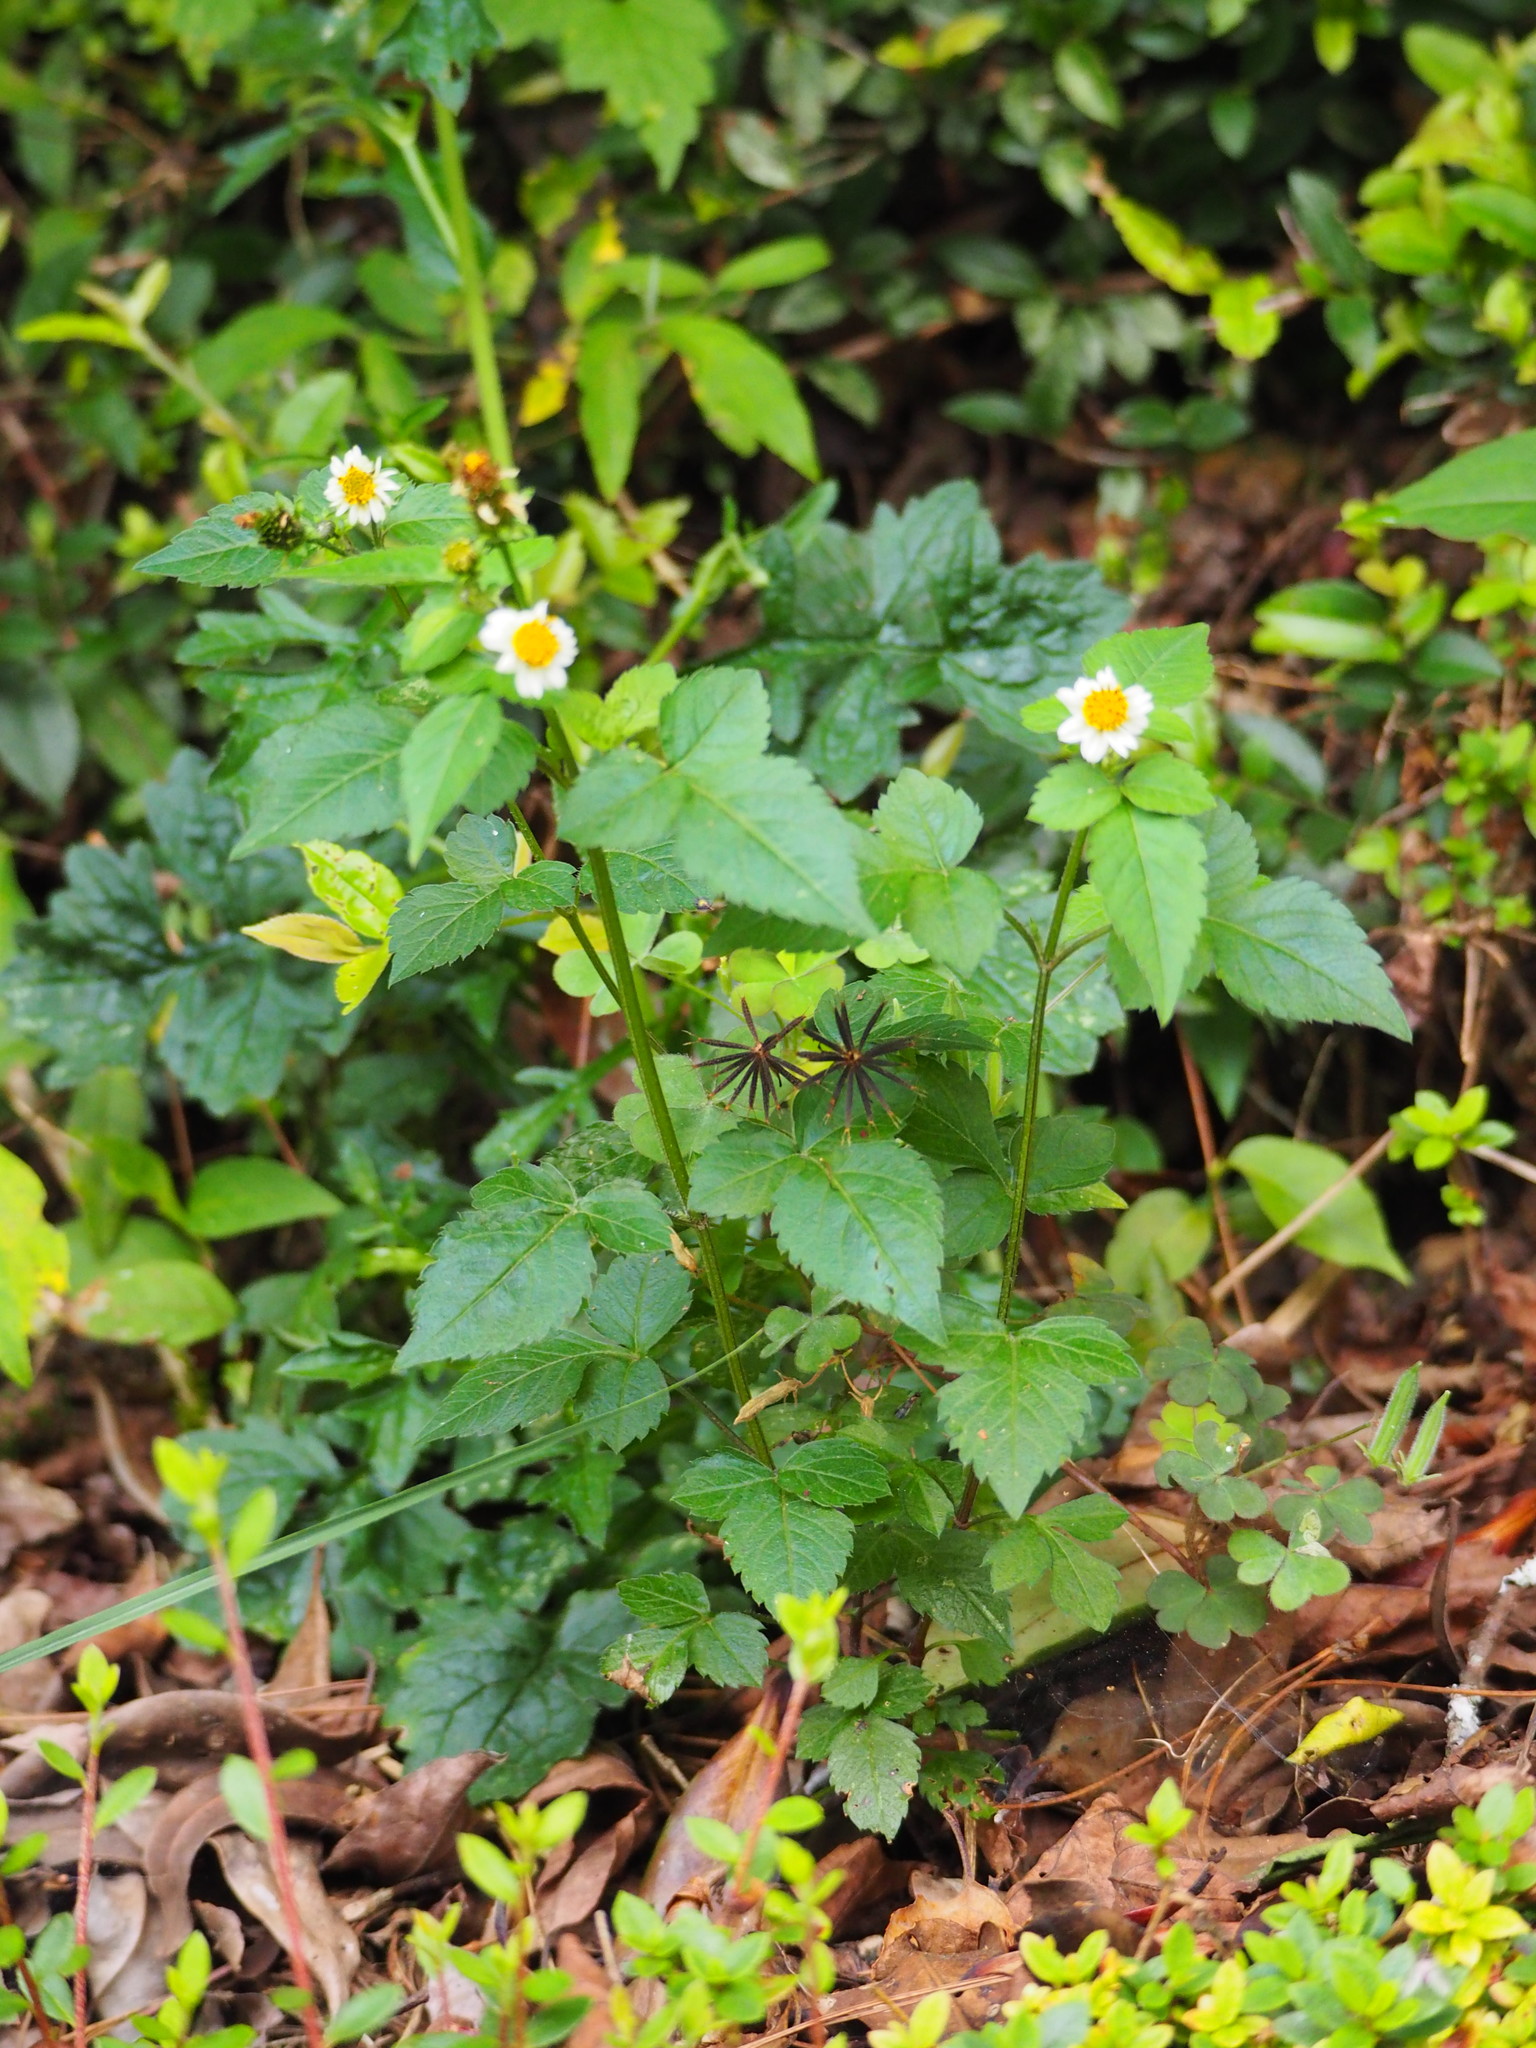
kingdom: Plantae
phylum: Tracheophyta
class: Magnoliopsida
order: Asterales
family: Asteraceae
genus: Bidens
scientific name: Bidens pilosa
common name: Black-jack
